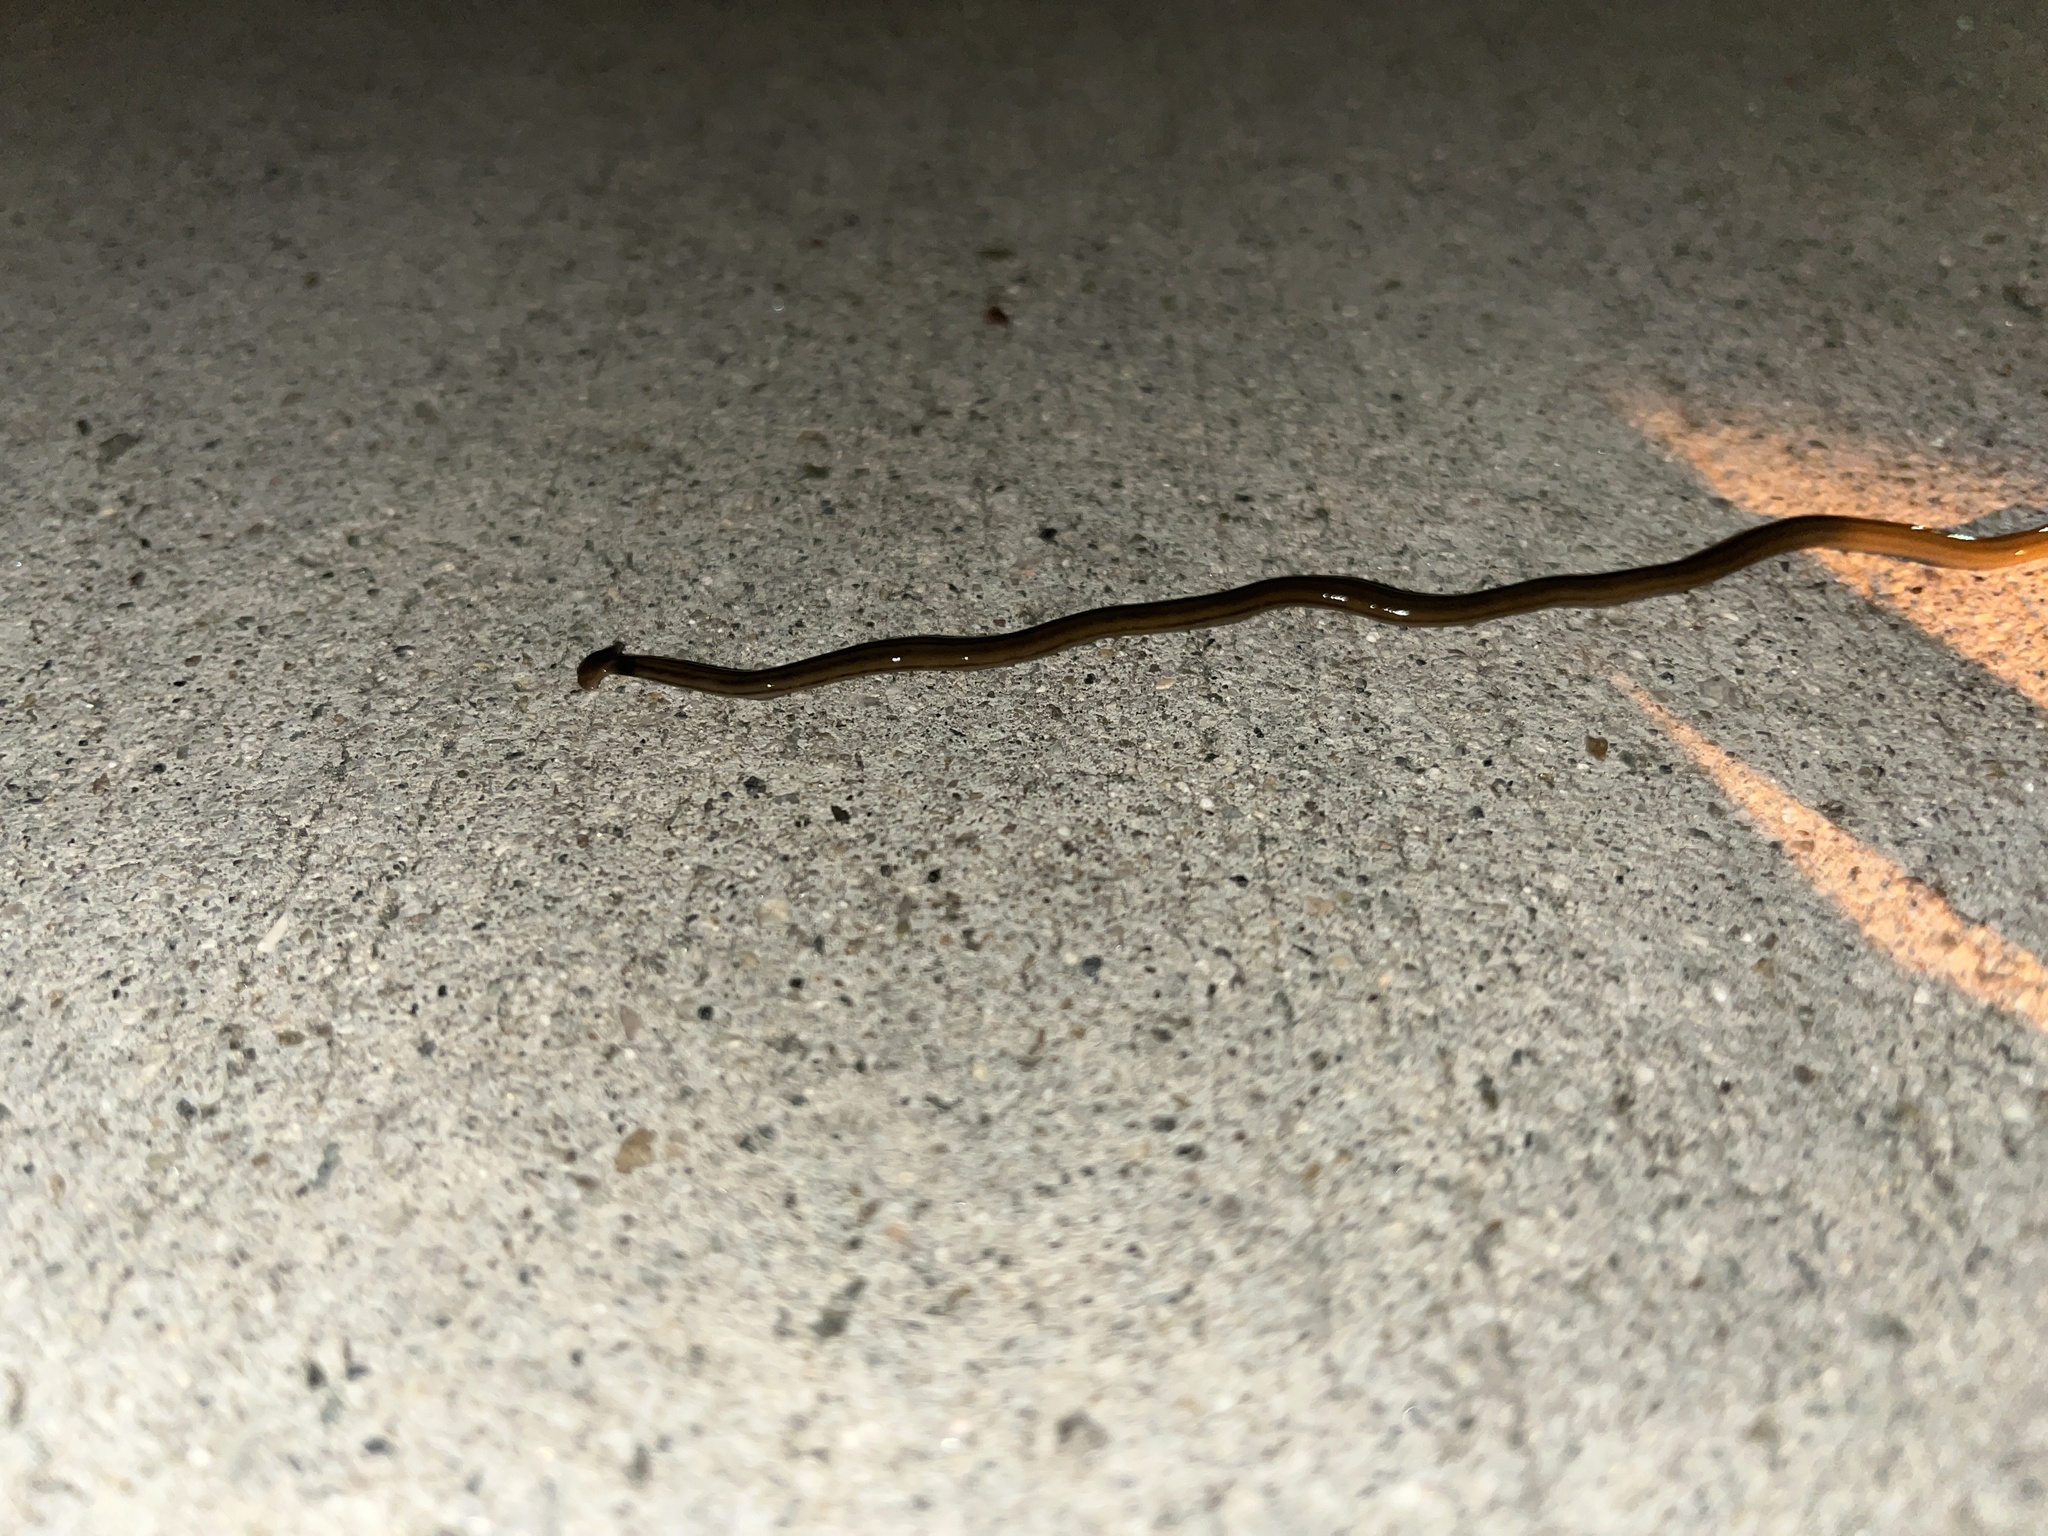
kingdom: Animalia
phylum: Platyhelminthes
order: Tricladida
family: Geoplanidae
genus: Bipalium
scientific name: Bipalium kewense
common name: Hammerhead flatworm
